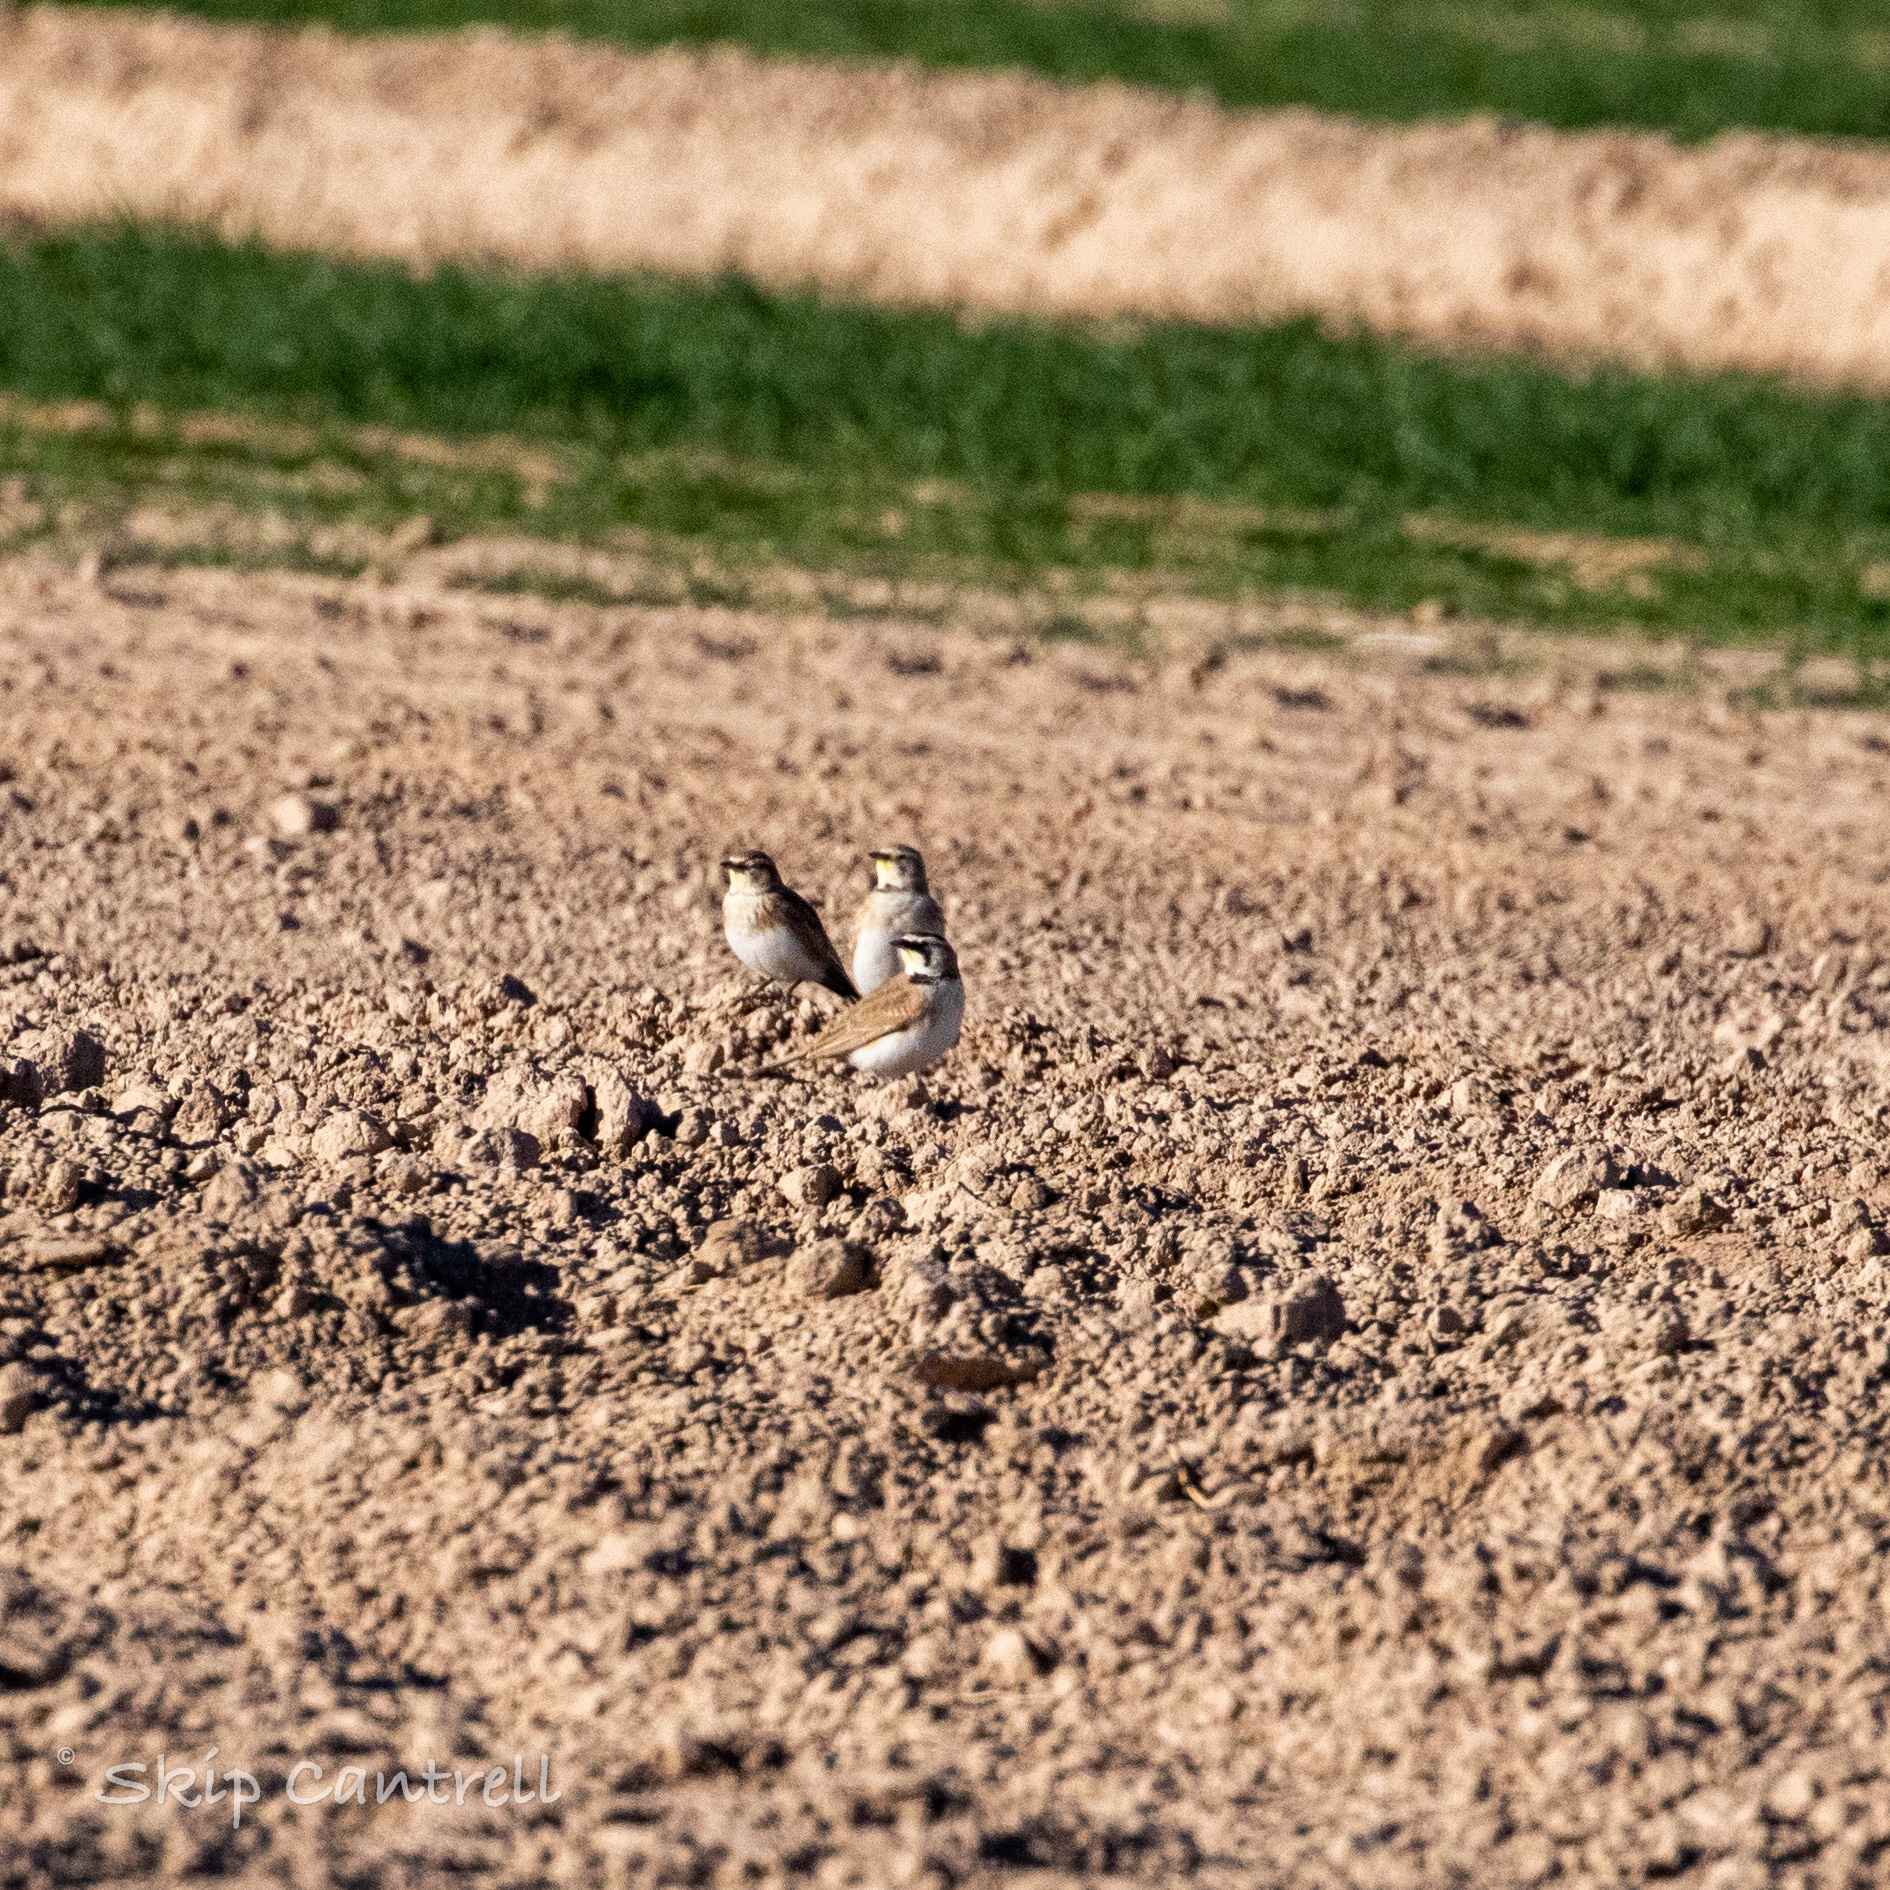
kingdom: Animalia
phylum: Chordata
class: Aves
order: Passeriformes
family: Alaudidae
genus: Eremophila
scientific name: Eremophila alpestris
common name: Horned lark
